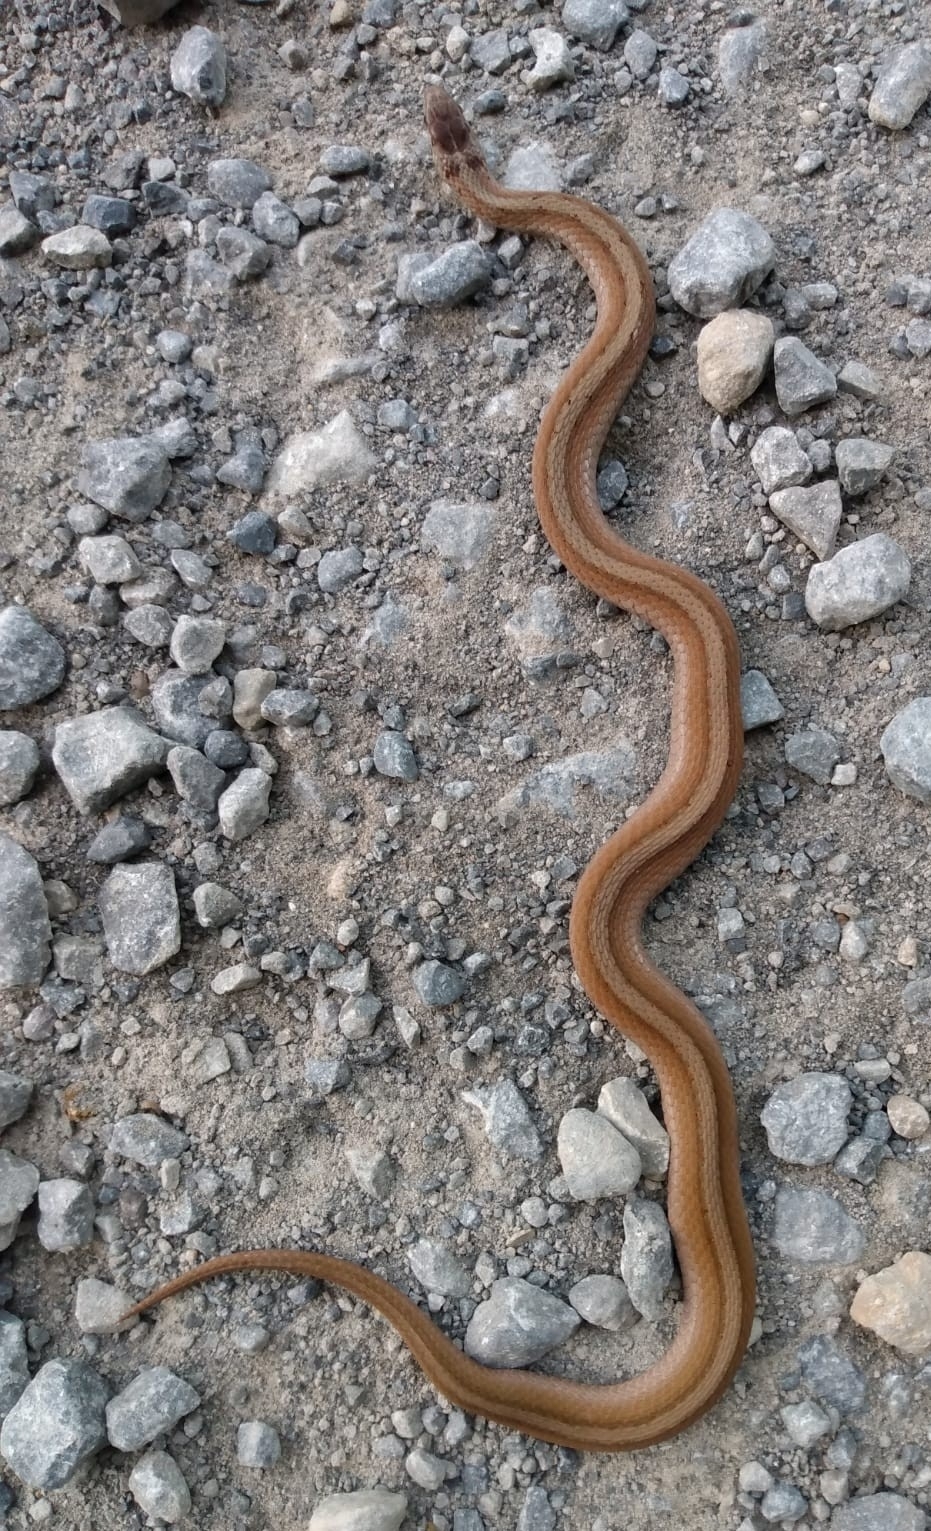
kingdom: Animalia
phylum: Chordata
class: Squamata
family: Colubridae
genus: Storeria
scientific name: Storeria dekayi
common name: (dekay’s) brown snake
